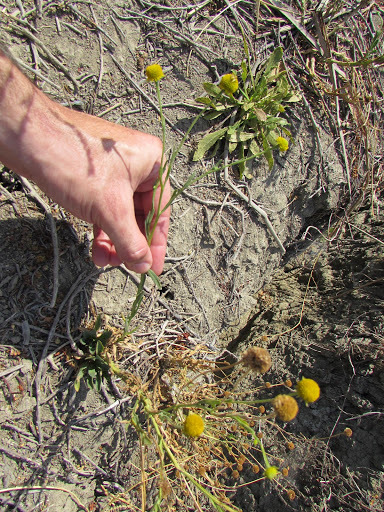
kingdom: Plantae
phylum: Tracheophyta
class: Magnoliopsida
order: Asterales
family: Asteraceae
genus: Helenium
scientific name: Helenium puberulum
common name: Sneezewort
